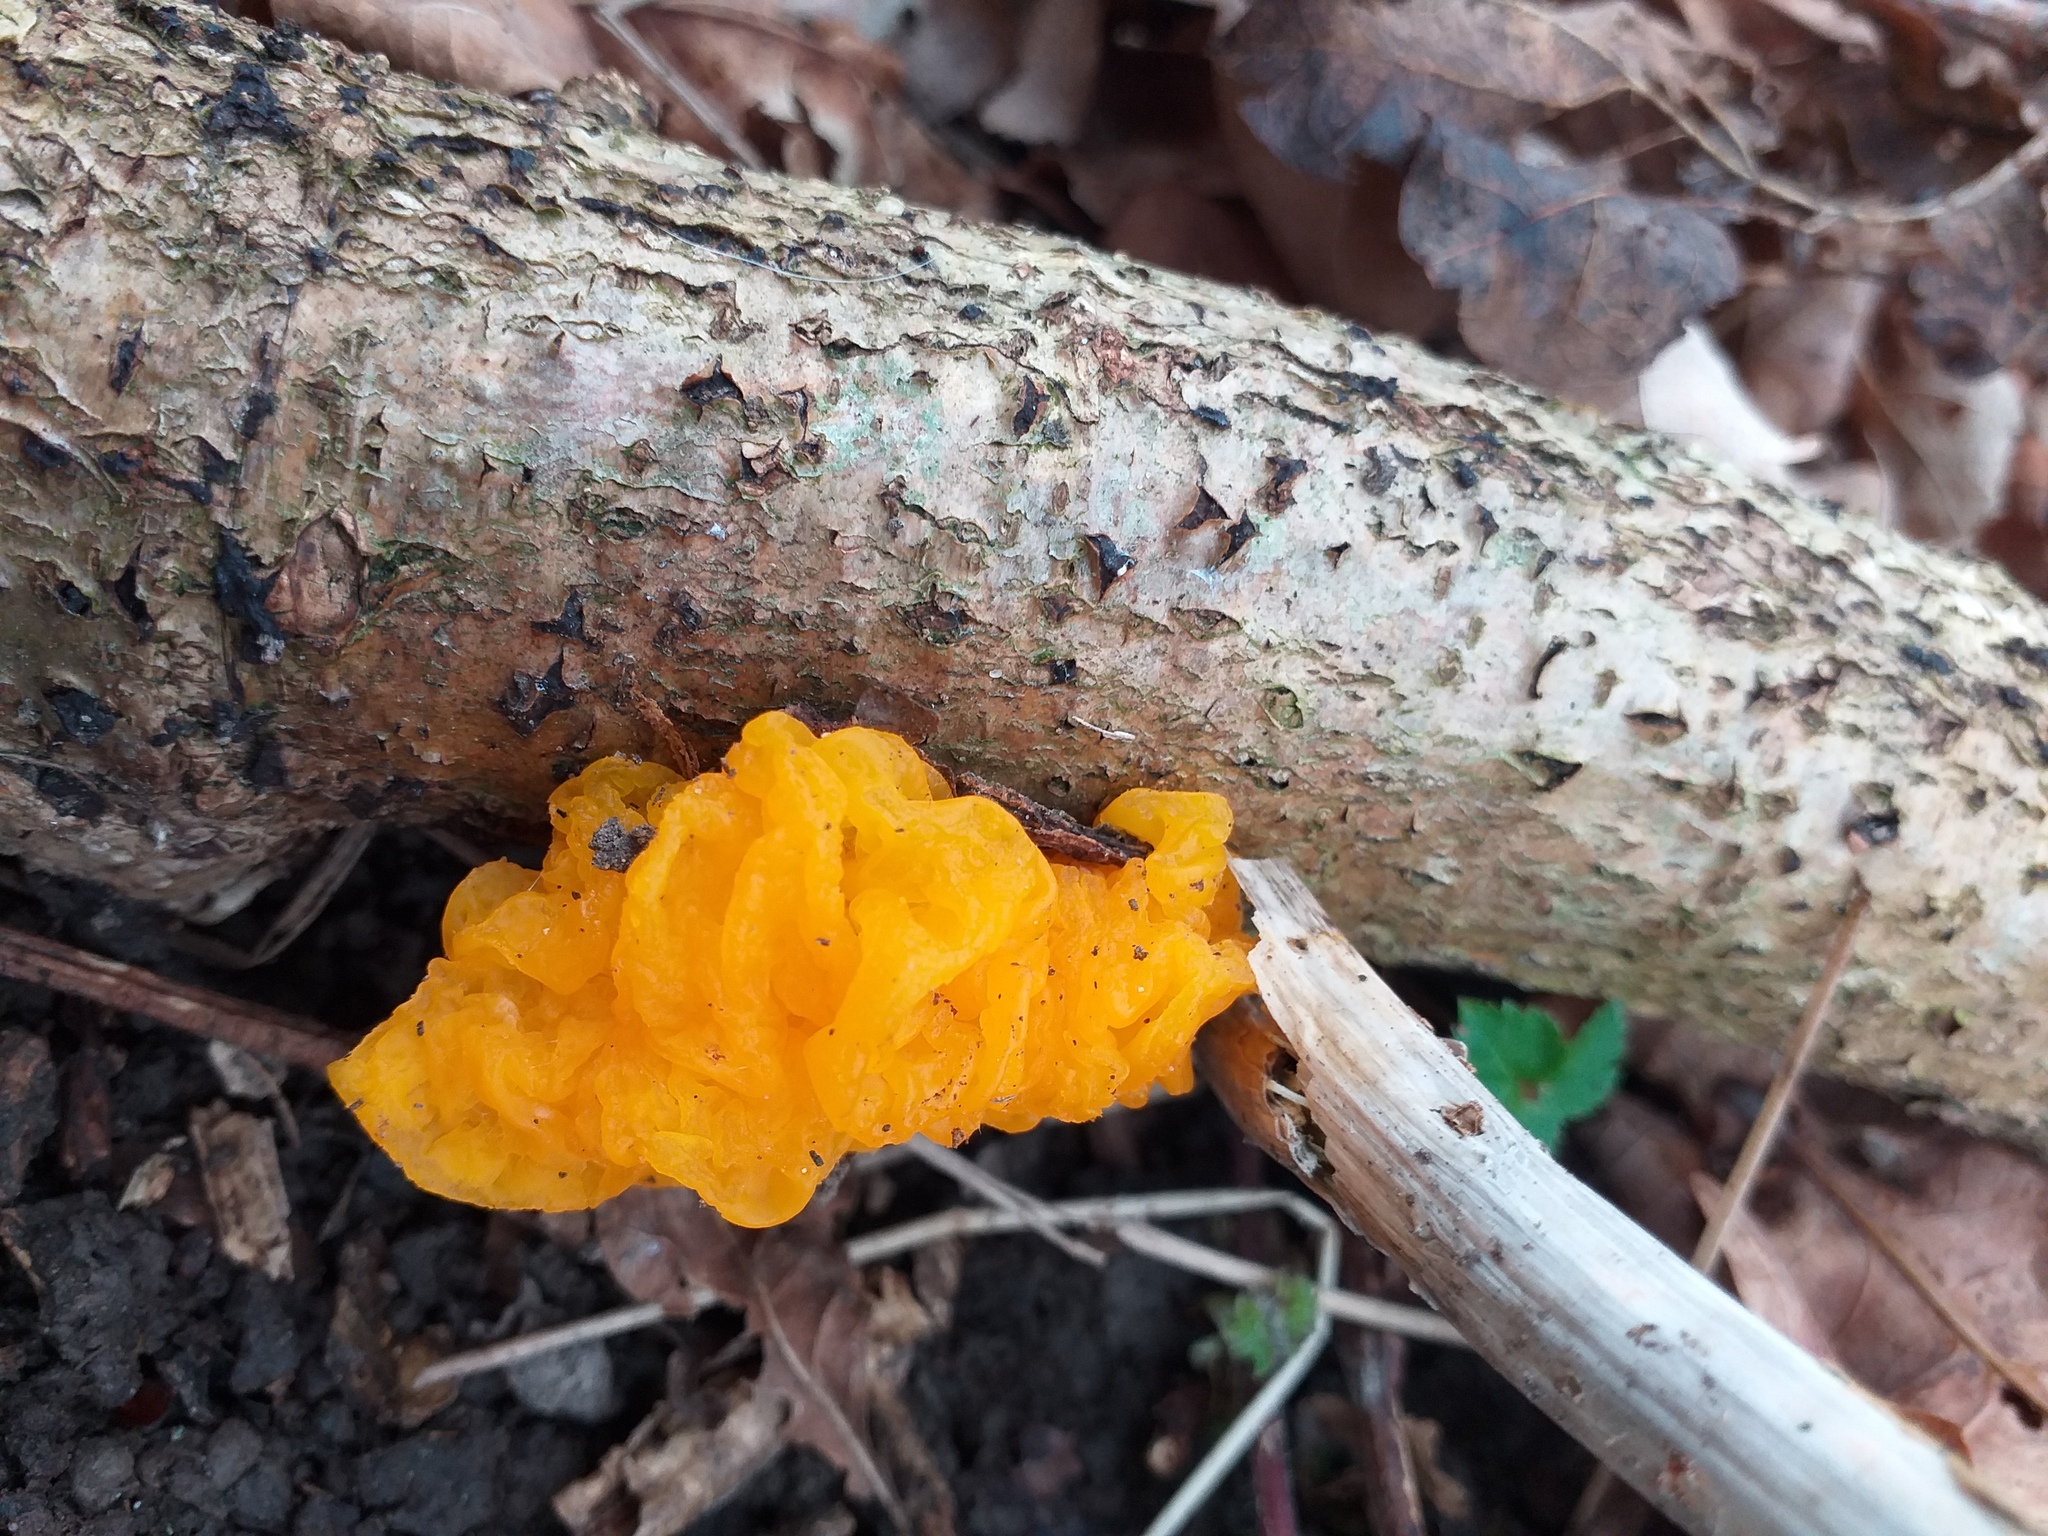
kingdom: Fungi
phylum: Basidiomycota
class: Tremellomycetes
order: Tremellales
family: Tremellaceae
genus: Tremella
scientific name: Tremella mesenterica
